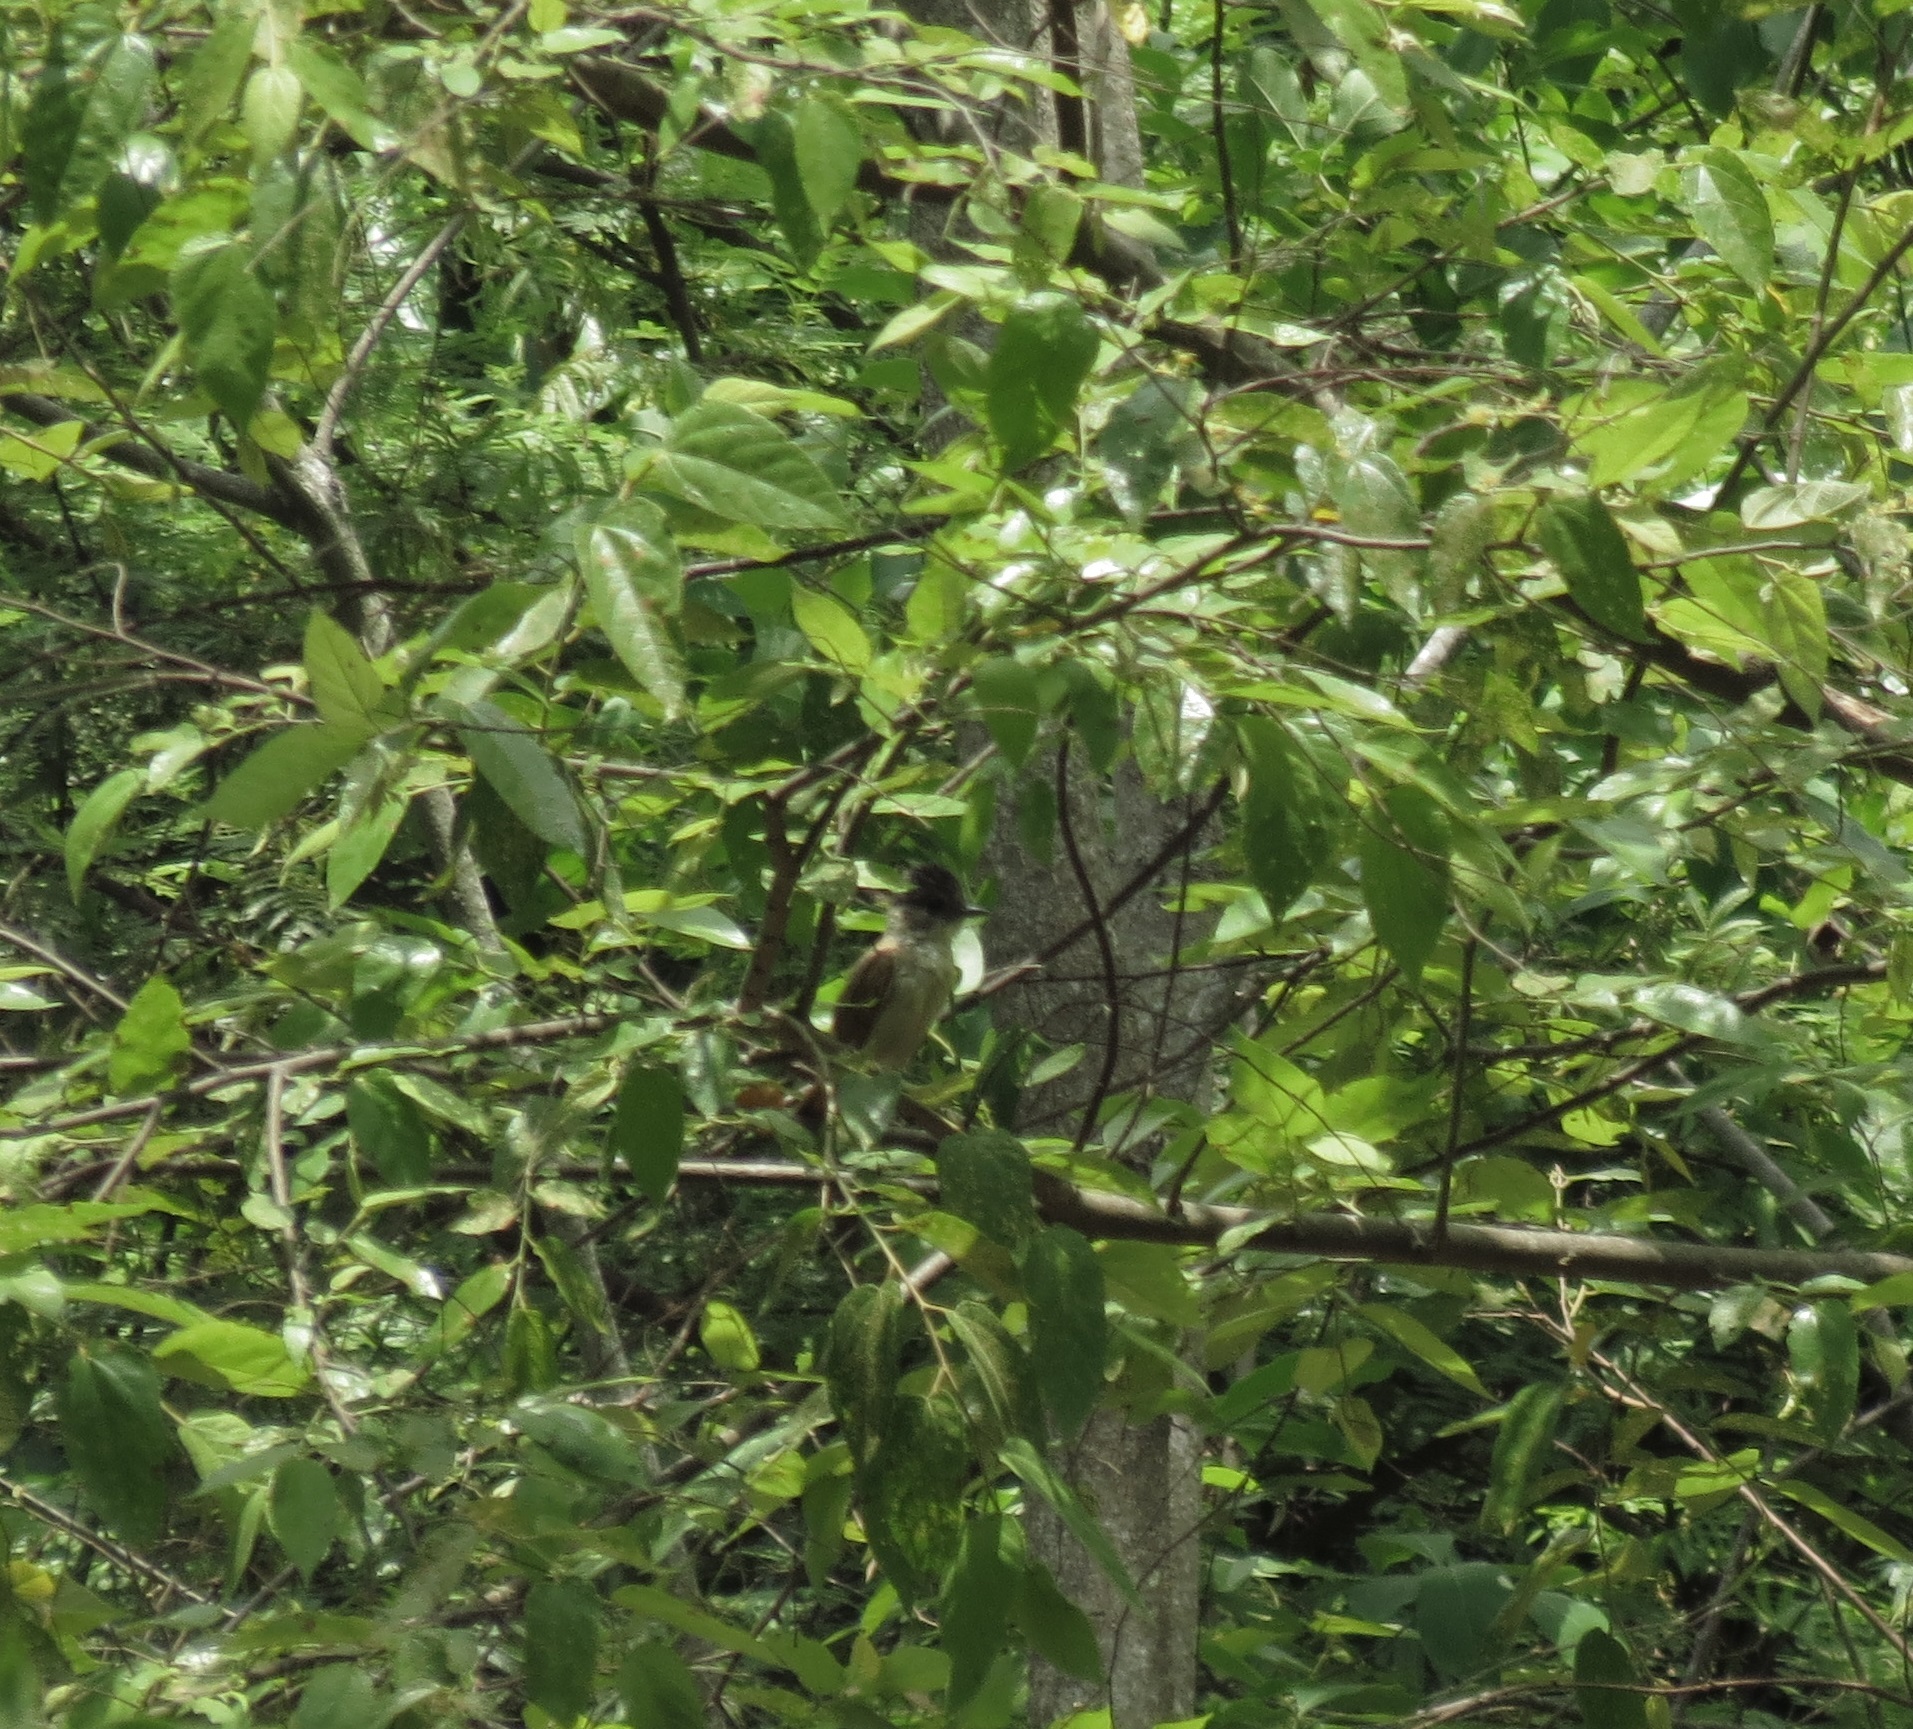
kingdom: Animalia
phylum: Chordata
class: Aves
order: Passeriformes
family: Cotingidae
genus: Pachyramphus
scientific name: Pachyramphus aglaiae
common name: Rose-throated becard
